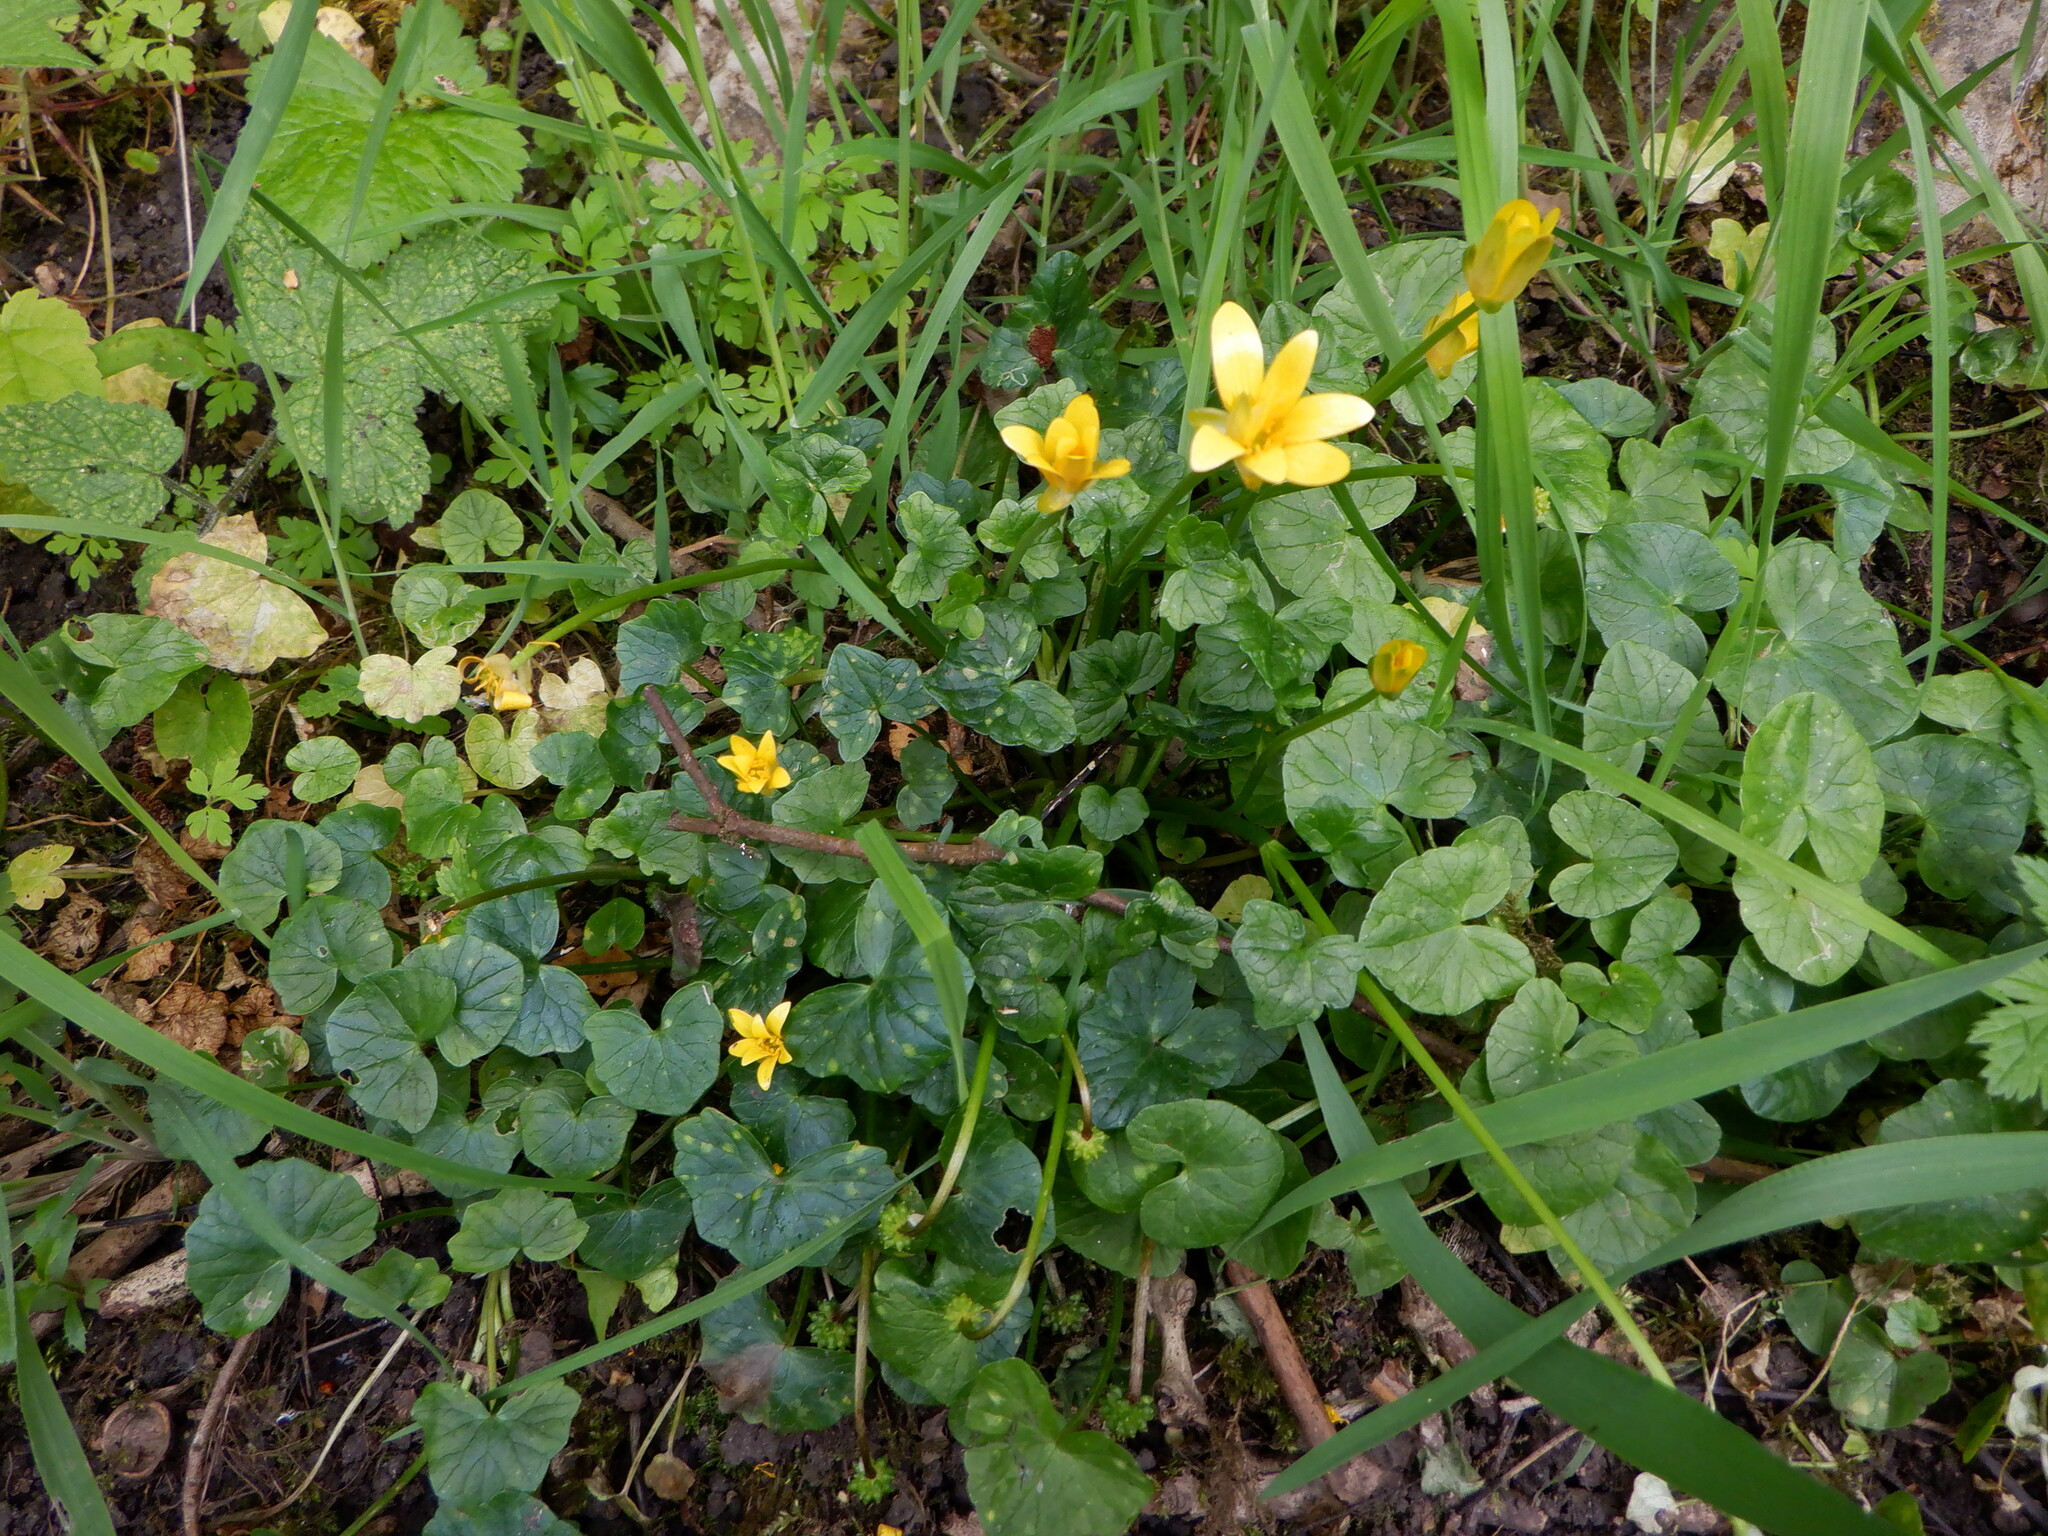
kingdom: Plantae
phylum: Tracheophyta
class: Magnoliopsida
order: Ranunculales
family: Ranunculaceae
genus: Ficaria
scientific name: Ficaria verna
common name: Lesser celandine
